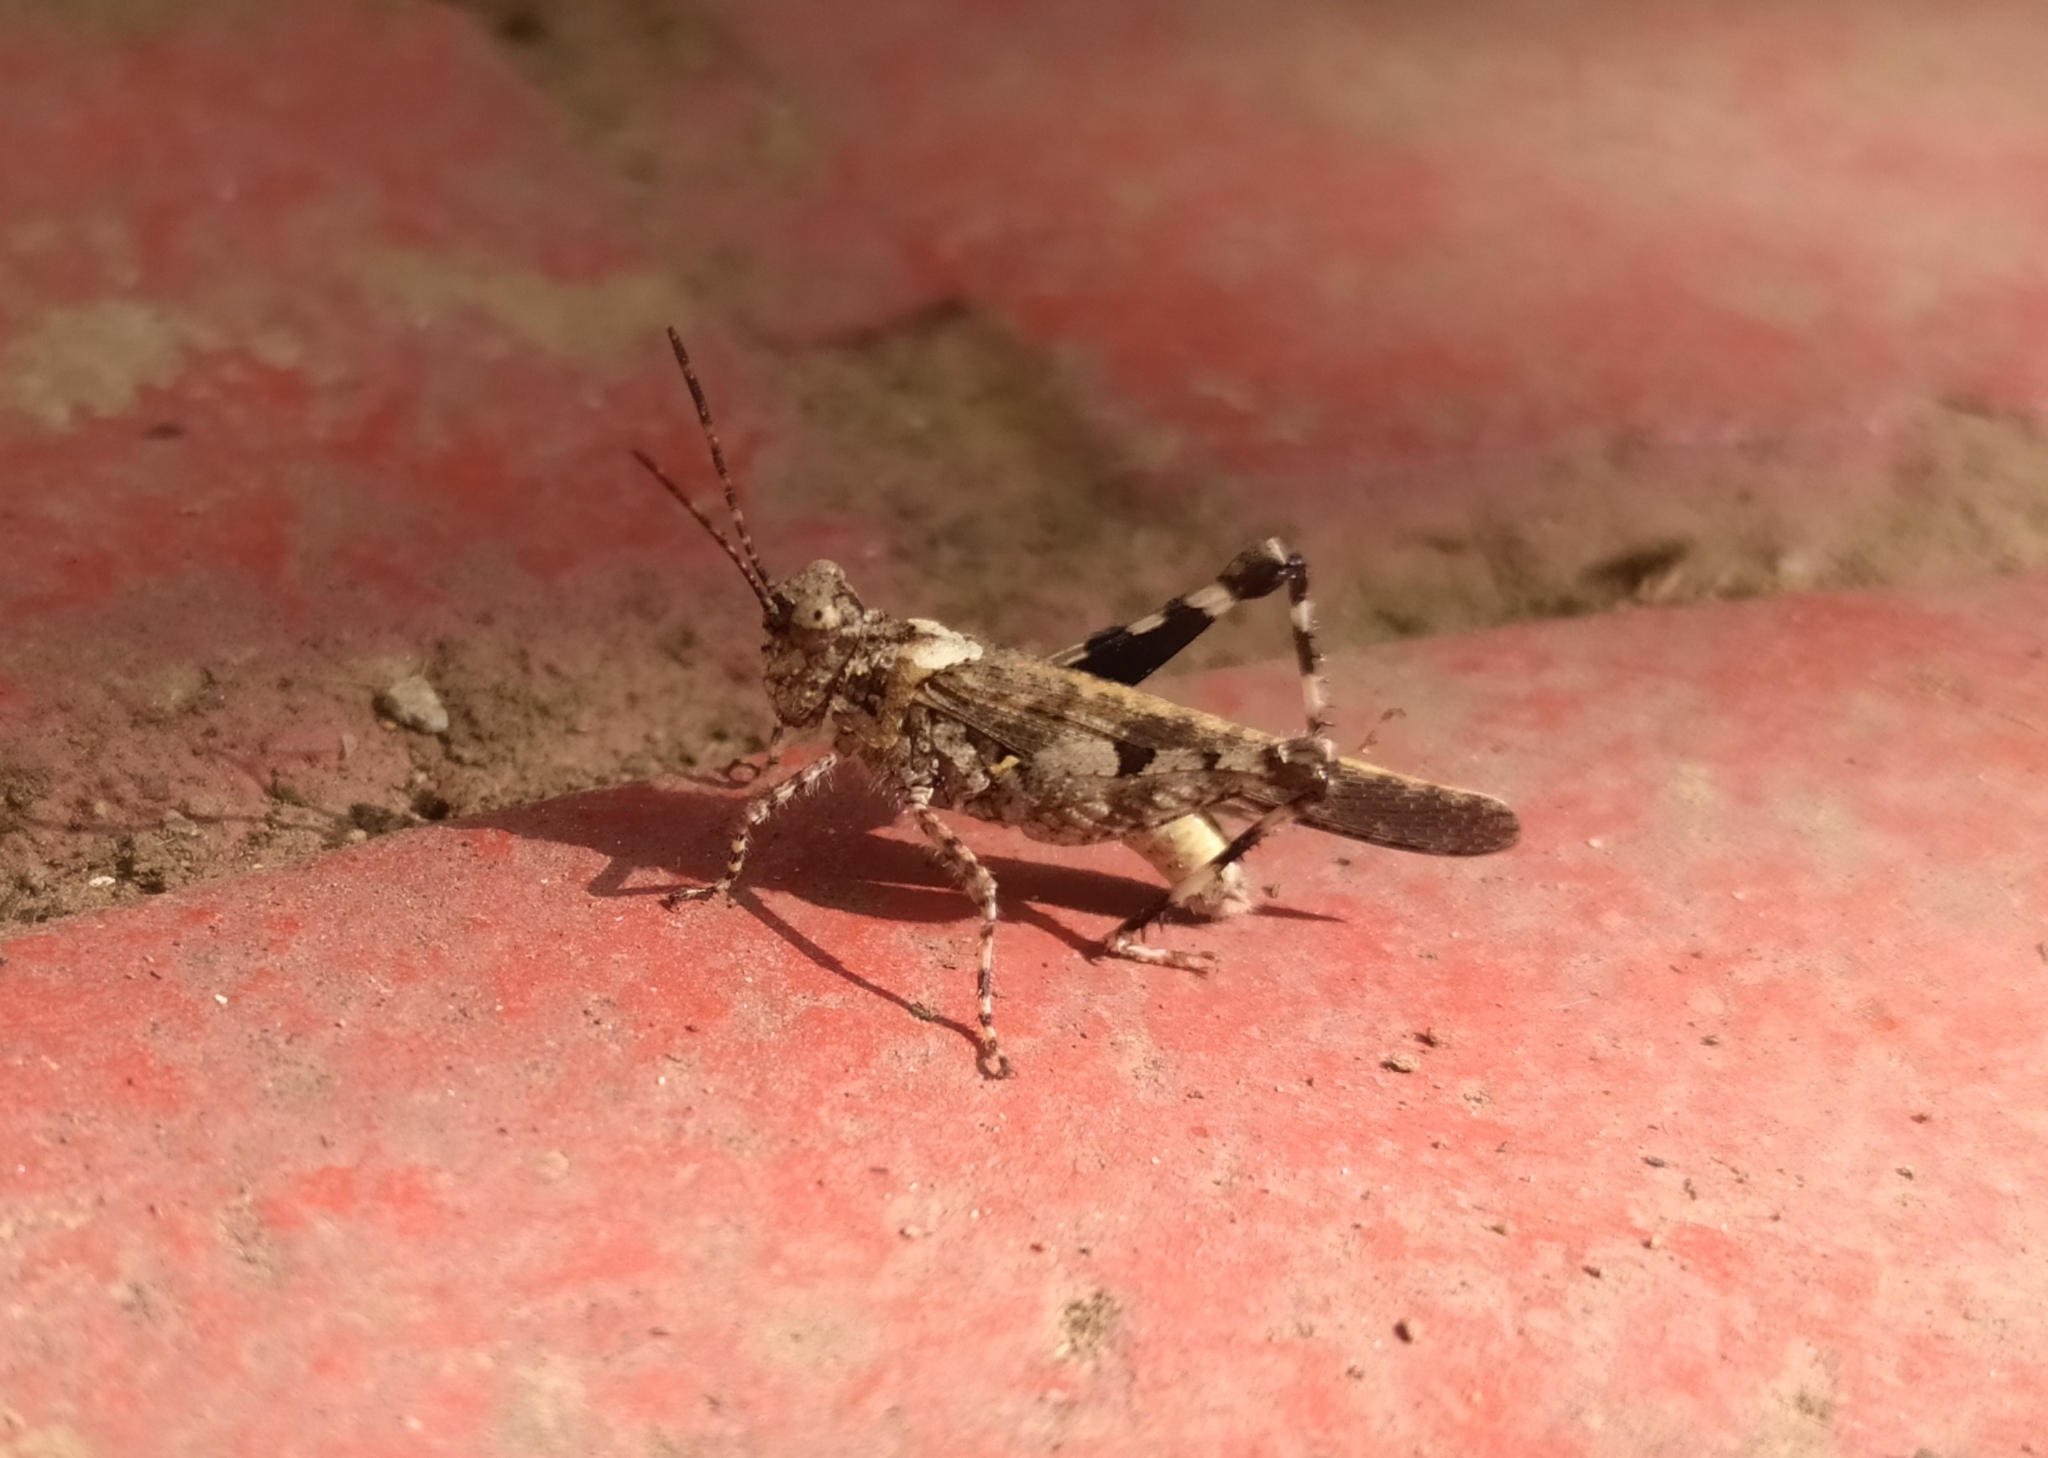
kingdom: Animalia
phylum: Arthropoda
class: Insecta
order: Orthoptera
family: Acrididae
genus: Trilophidia
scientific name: Trilophidia annulata
